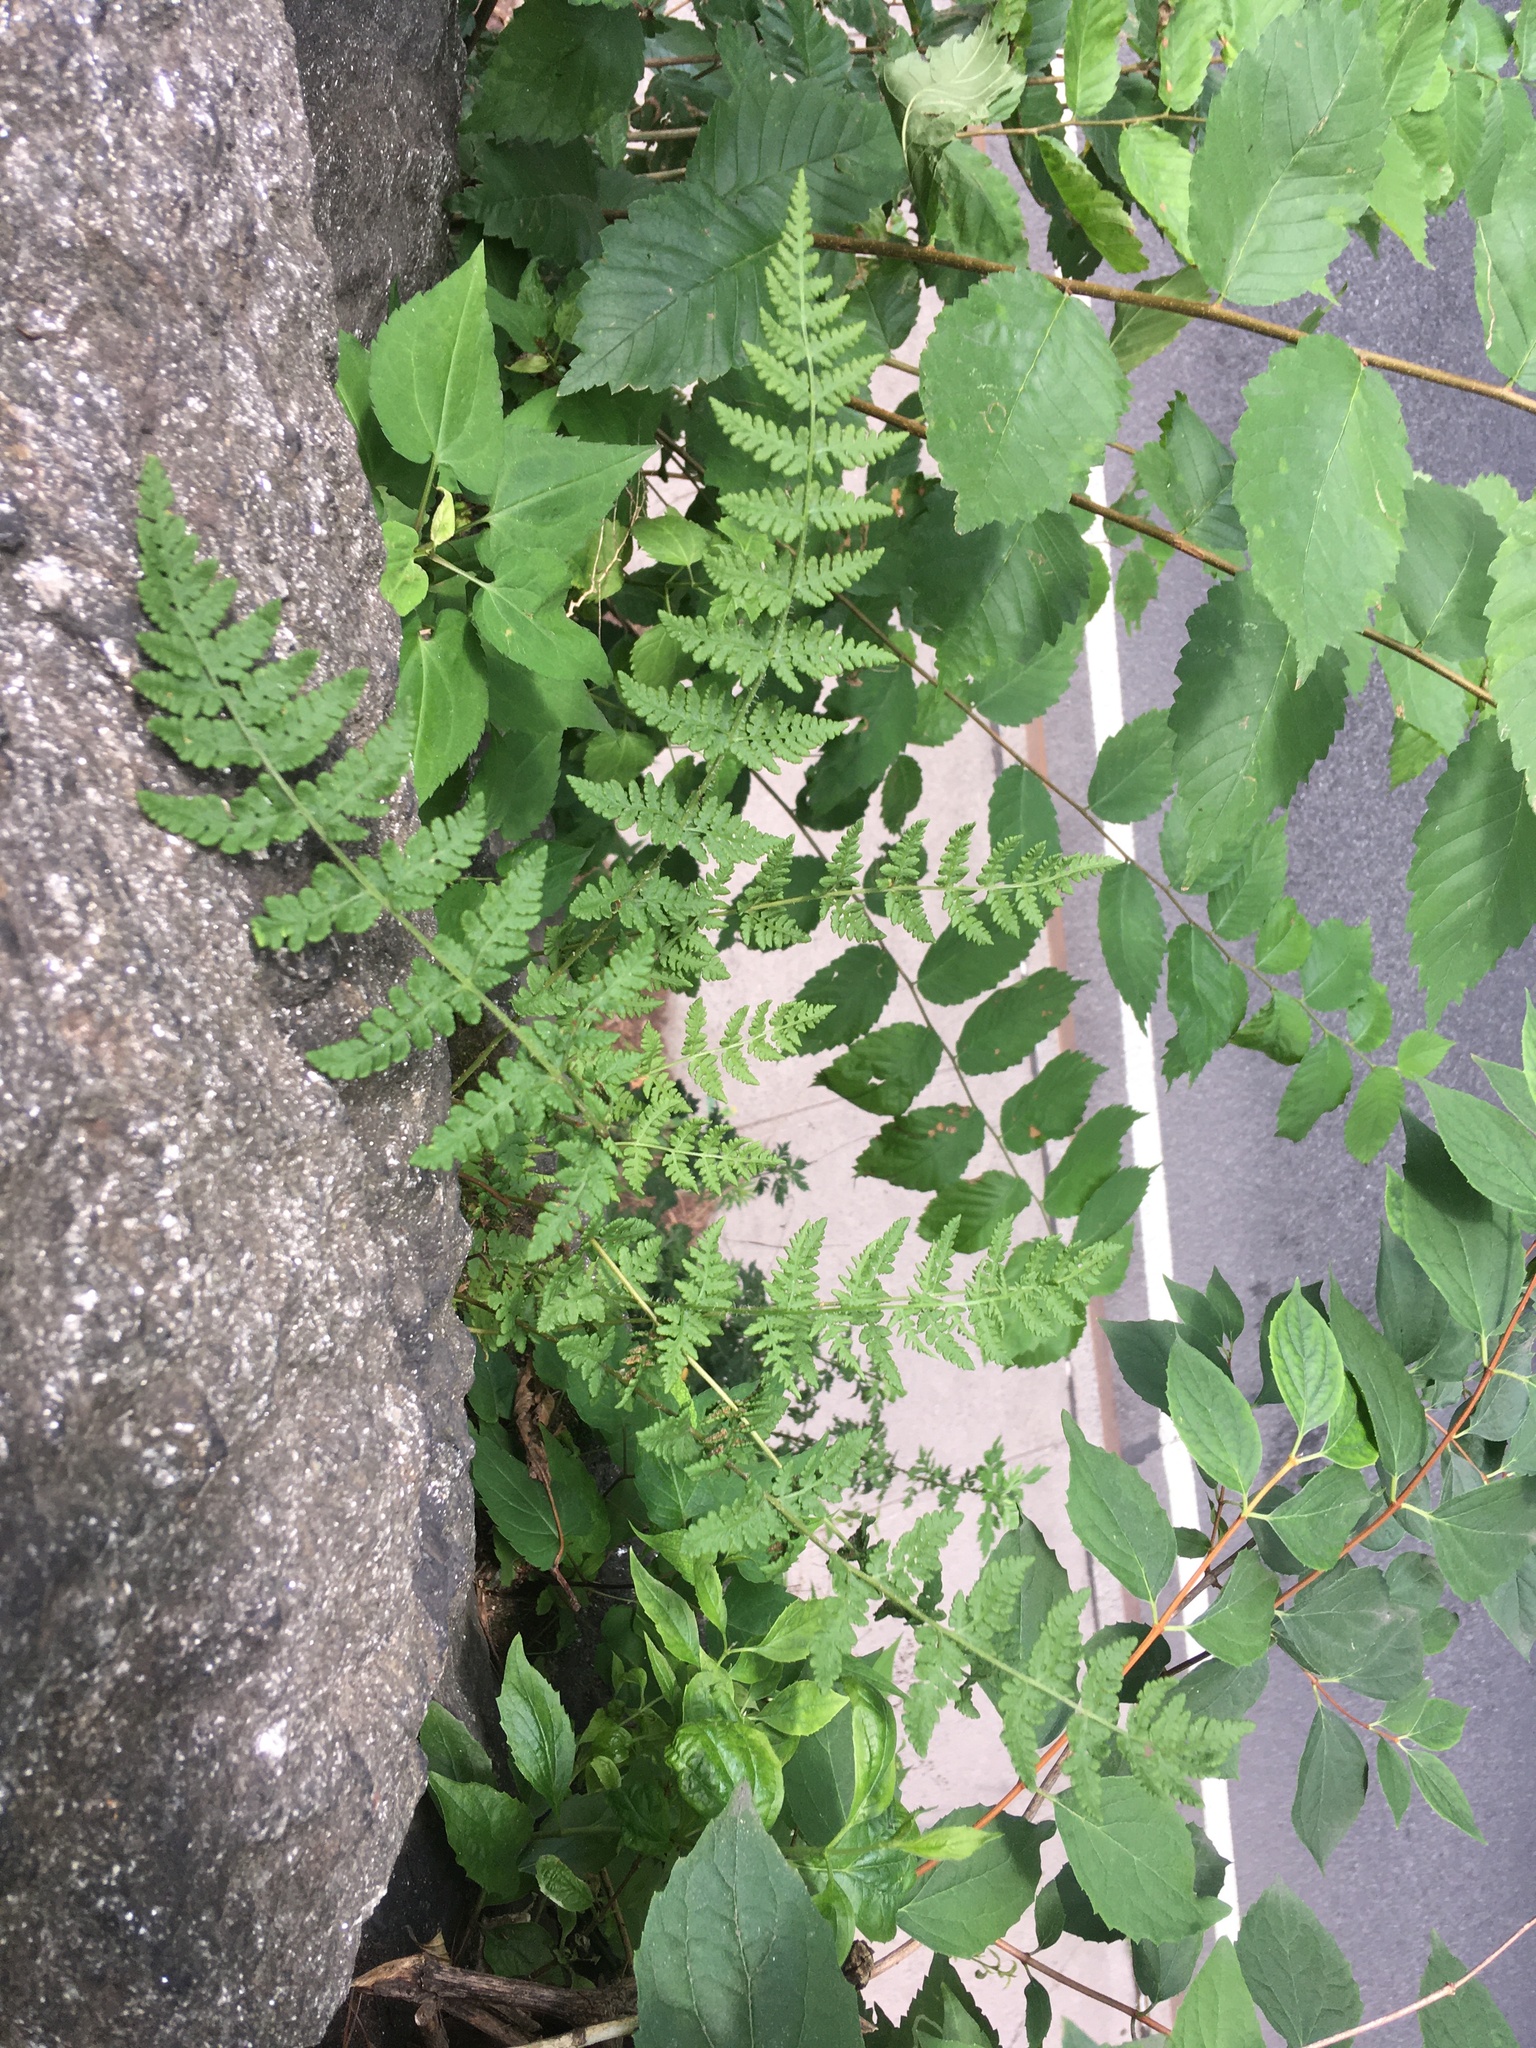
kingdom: Plantae
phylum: Tracheophyta
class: Polypodiopsida
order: Polypodiales
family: Woodsiaceae
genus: Physematium
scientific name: Physematium obtusum
